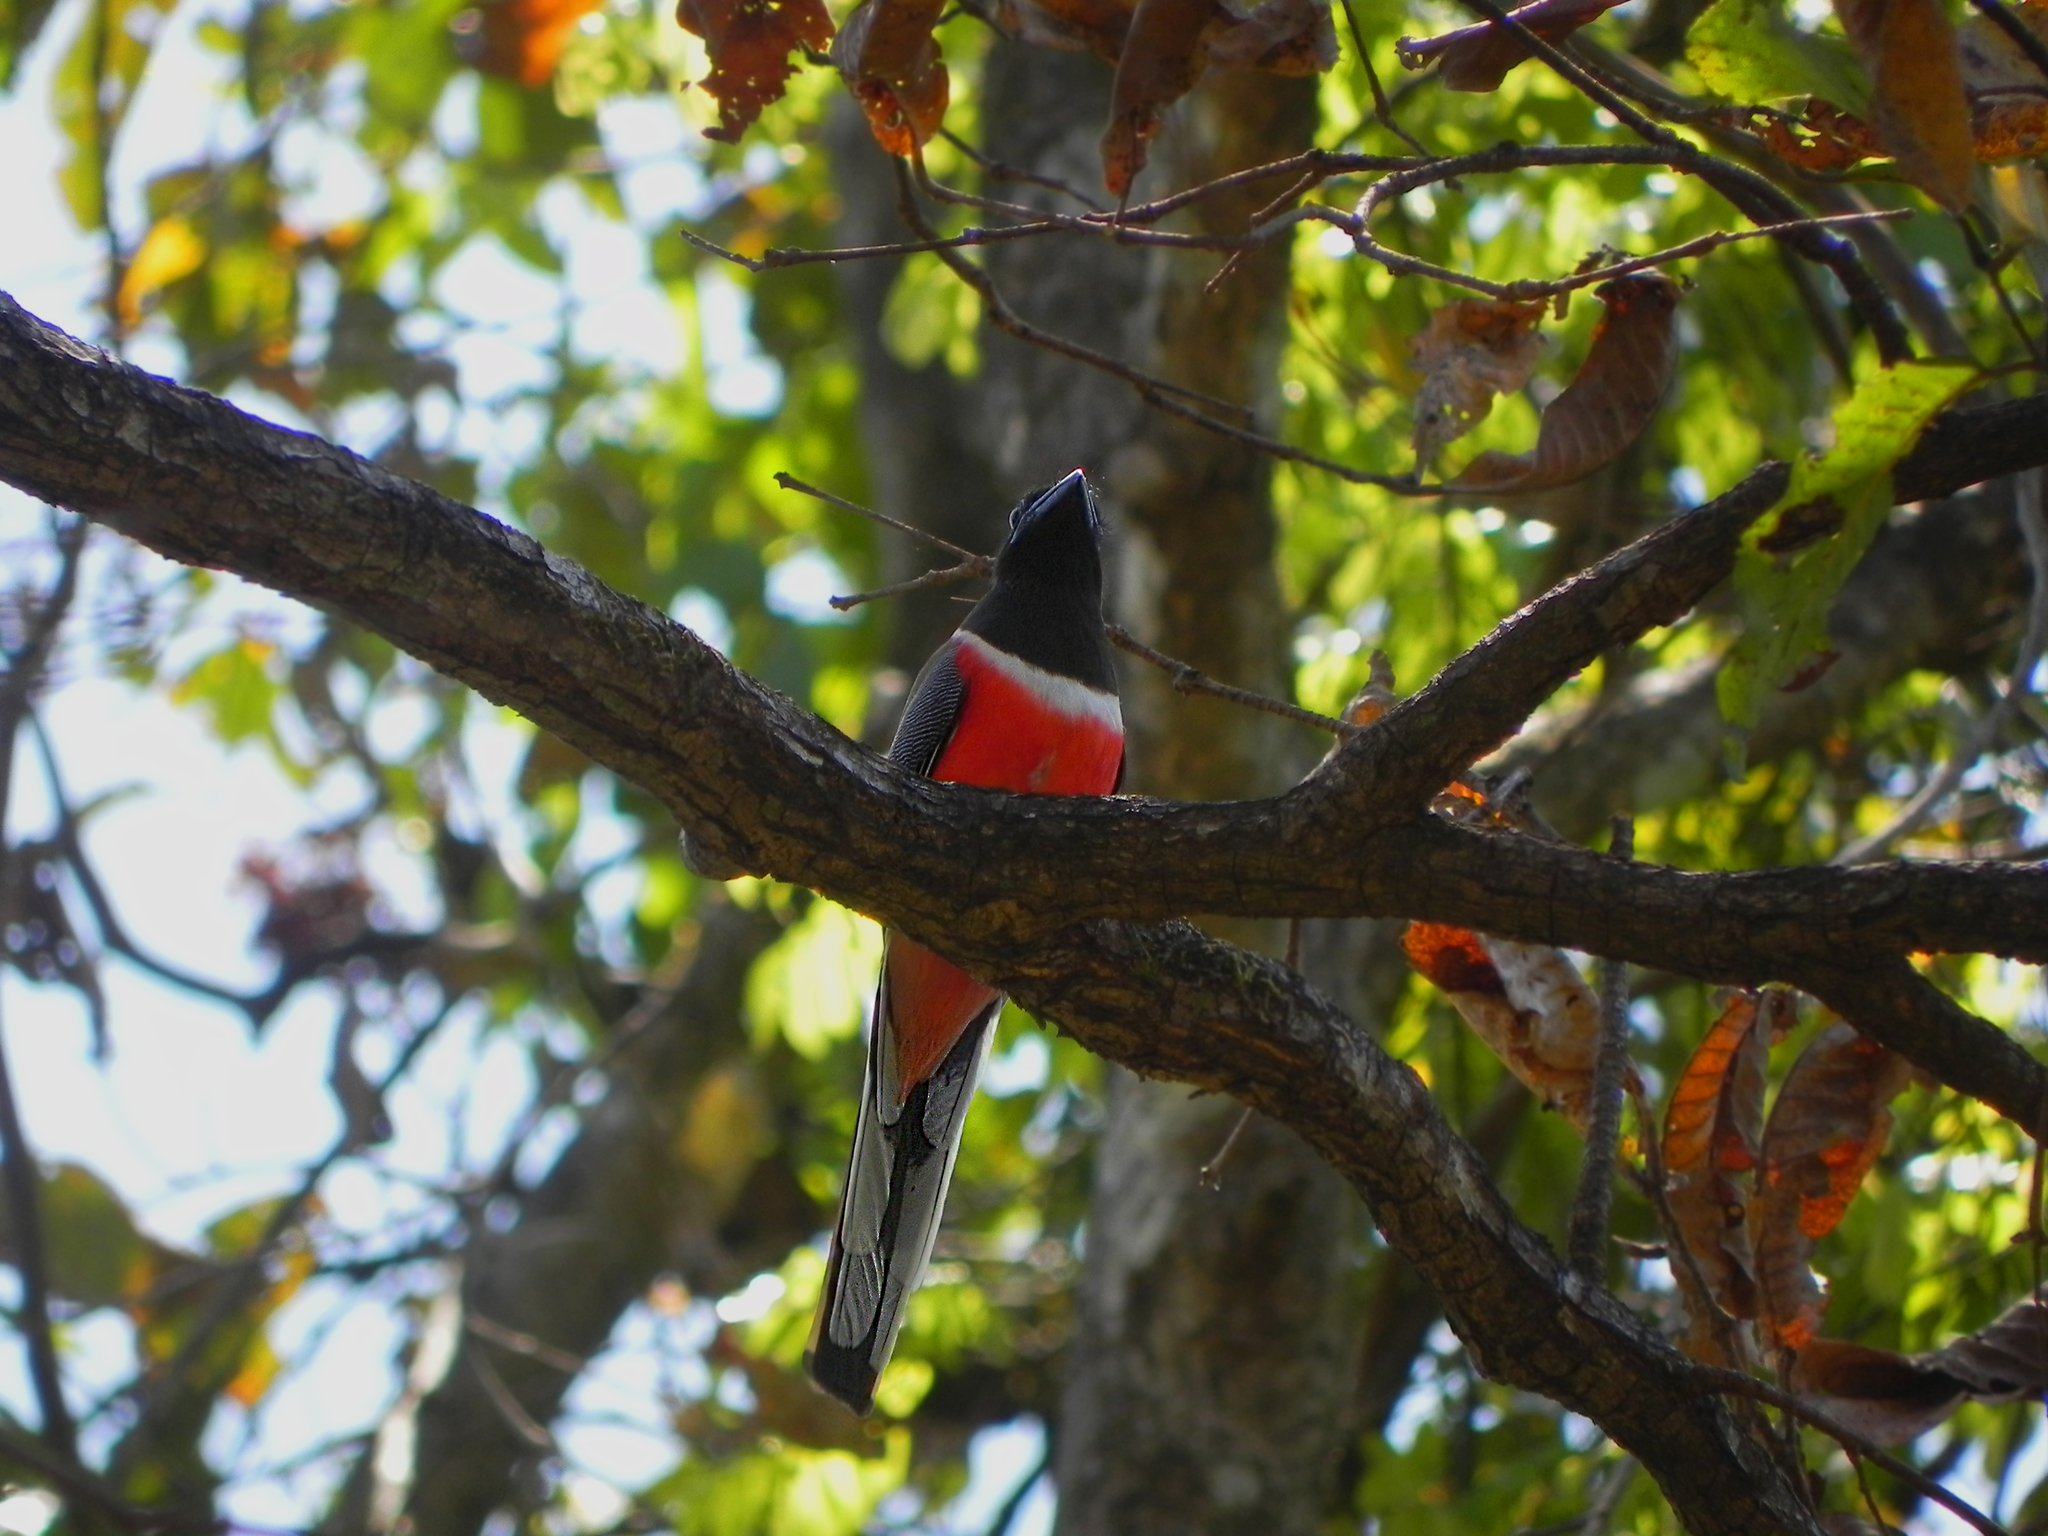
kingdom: Animalia
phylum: Chordata
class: Aves
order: Trogoniformes
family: Trogonidae
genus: Harpactes
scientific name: Harpactes fasciatus
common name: Malabar trogon
